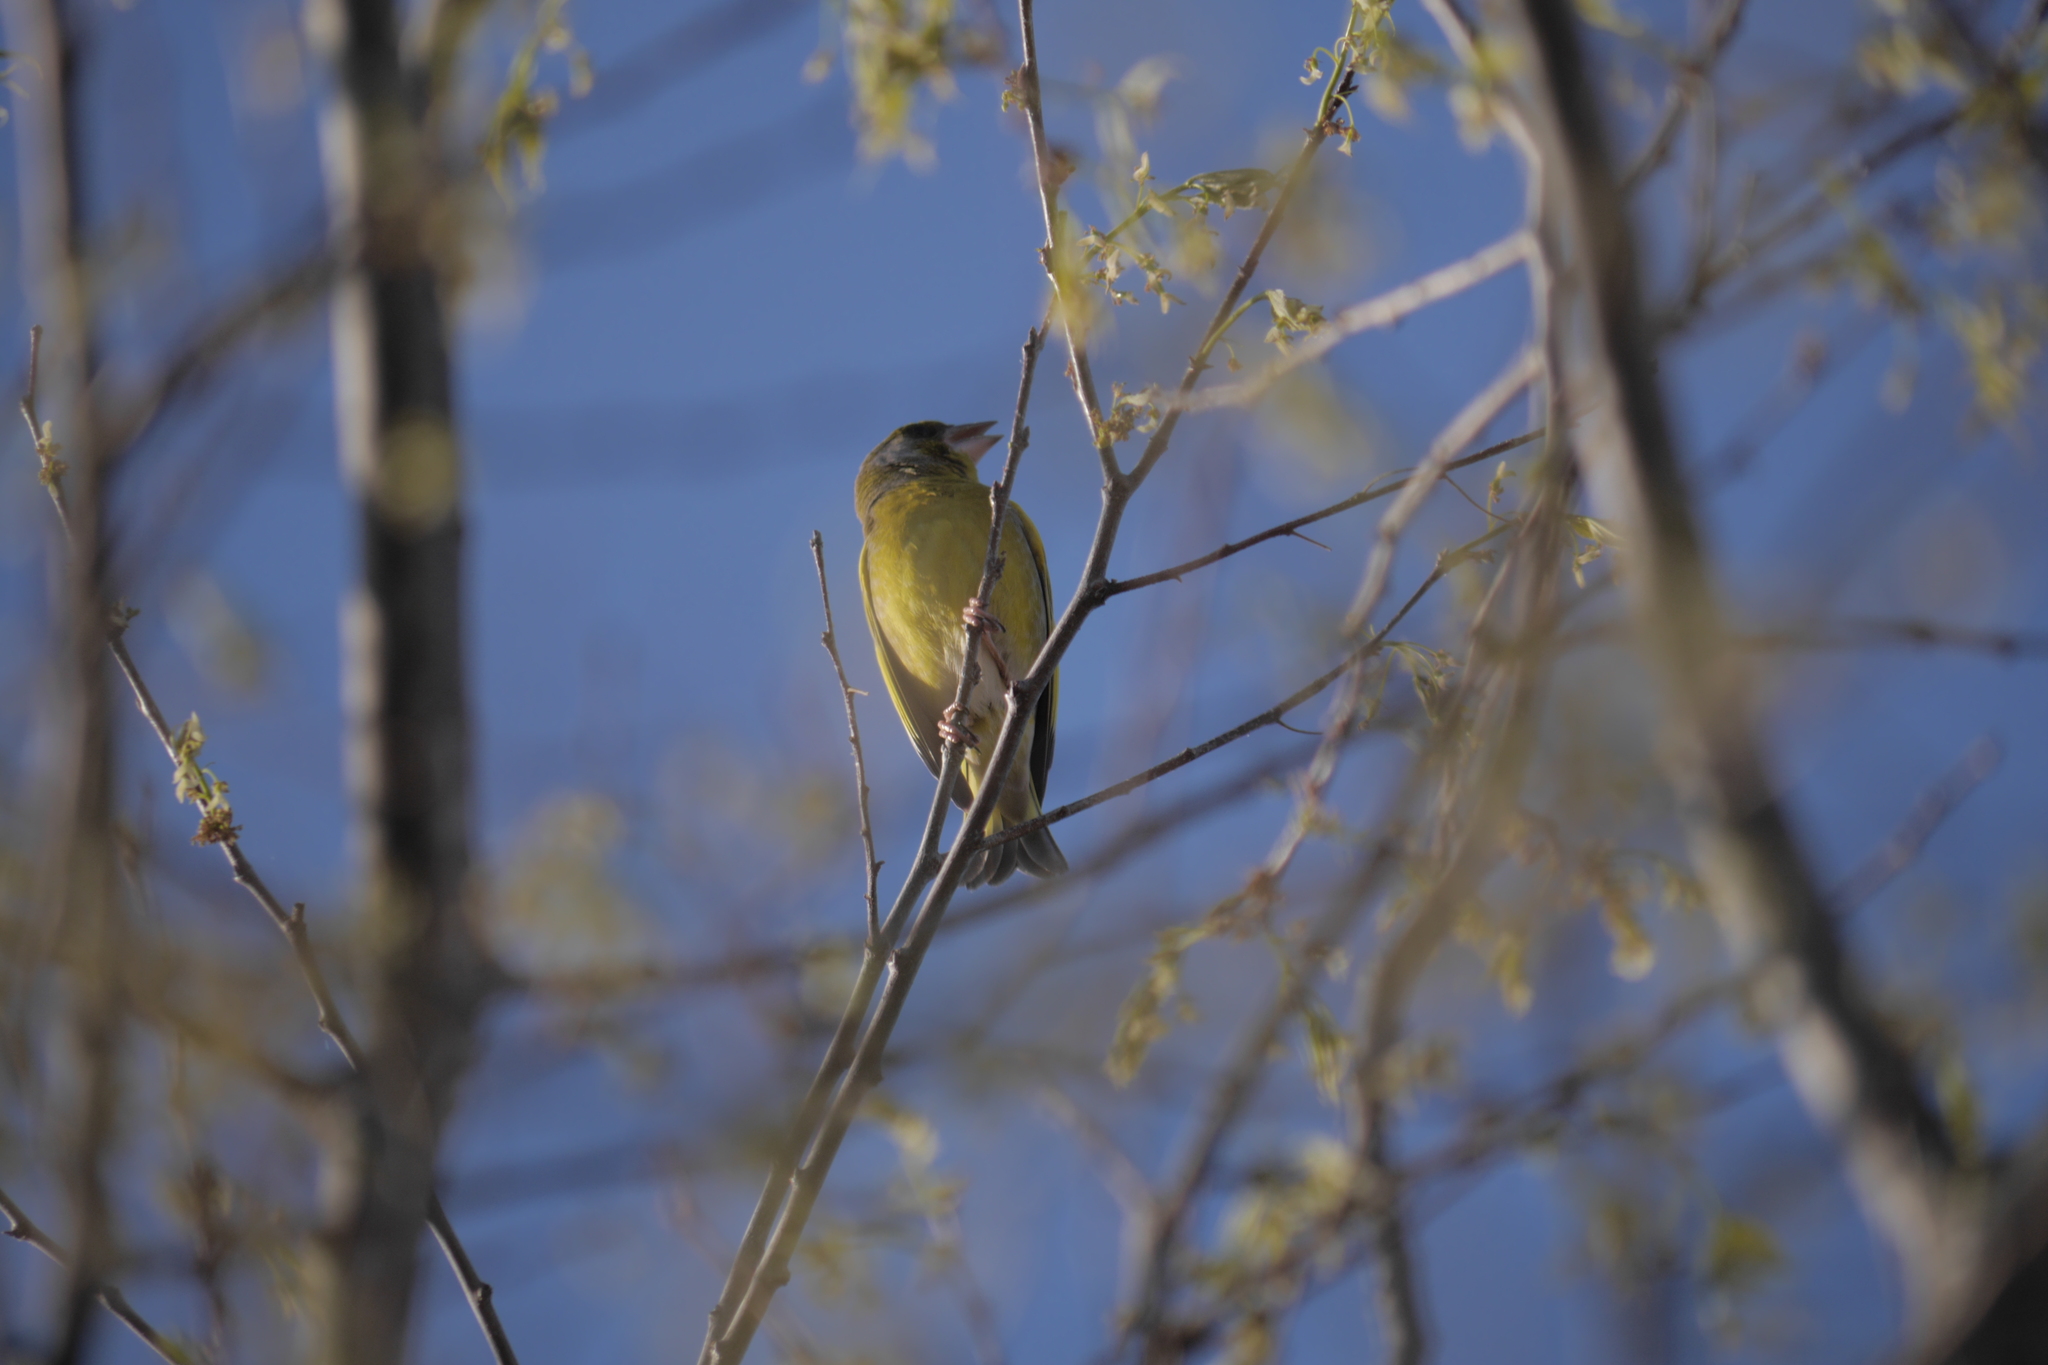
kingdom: Plantae
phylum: Tracheophyta
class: Liliopsida
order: Poales
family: Poaceae
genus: Chloris
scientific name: Chloris chloris
